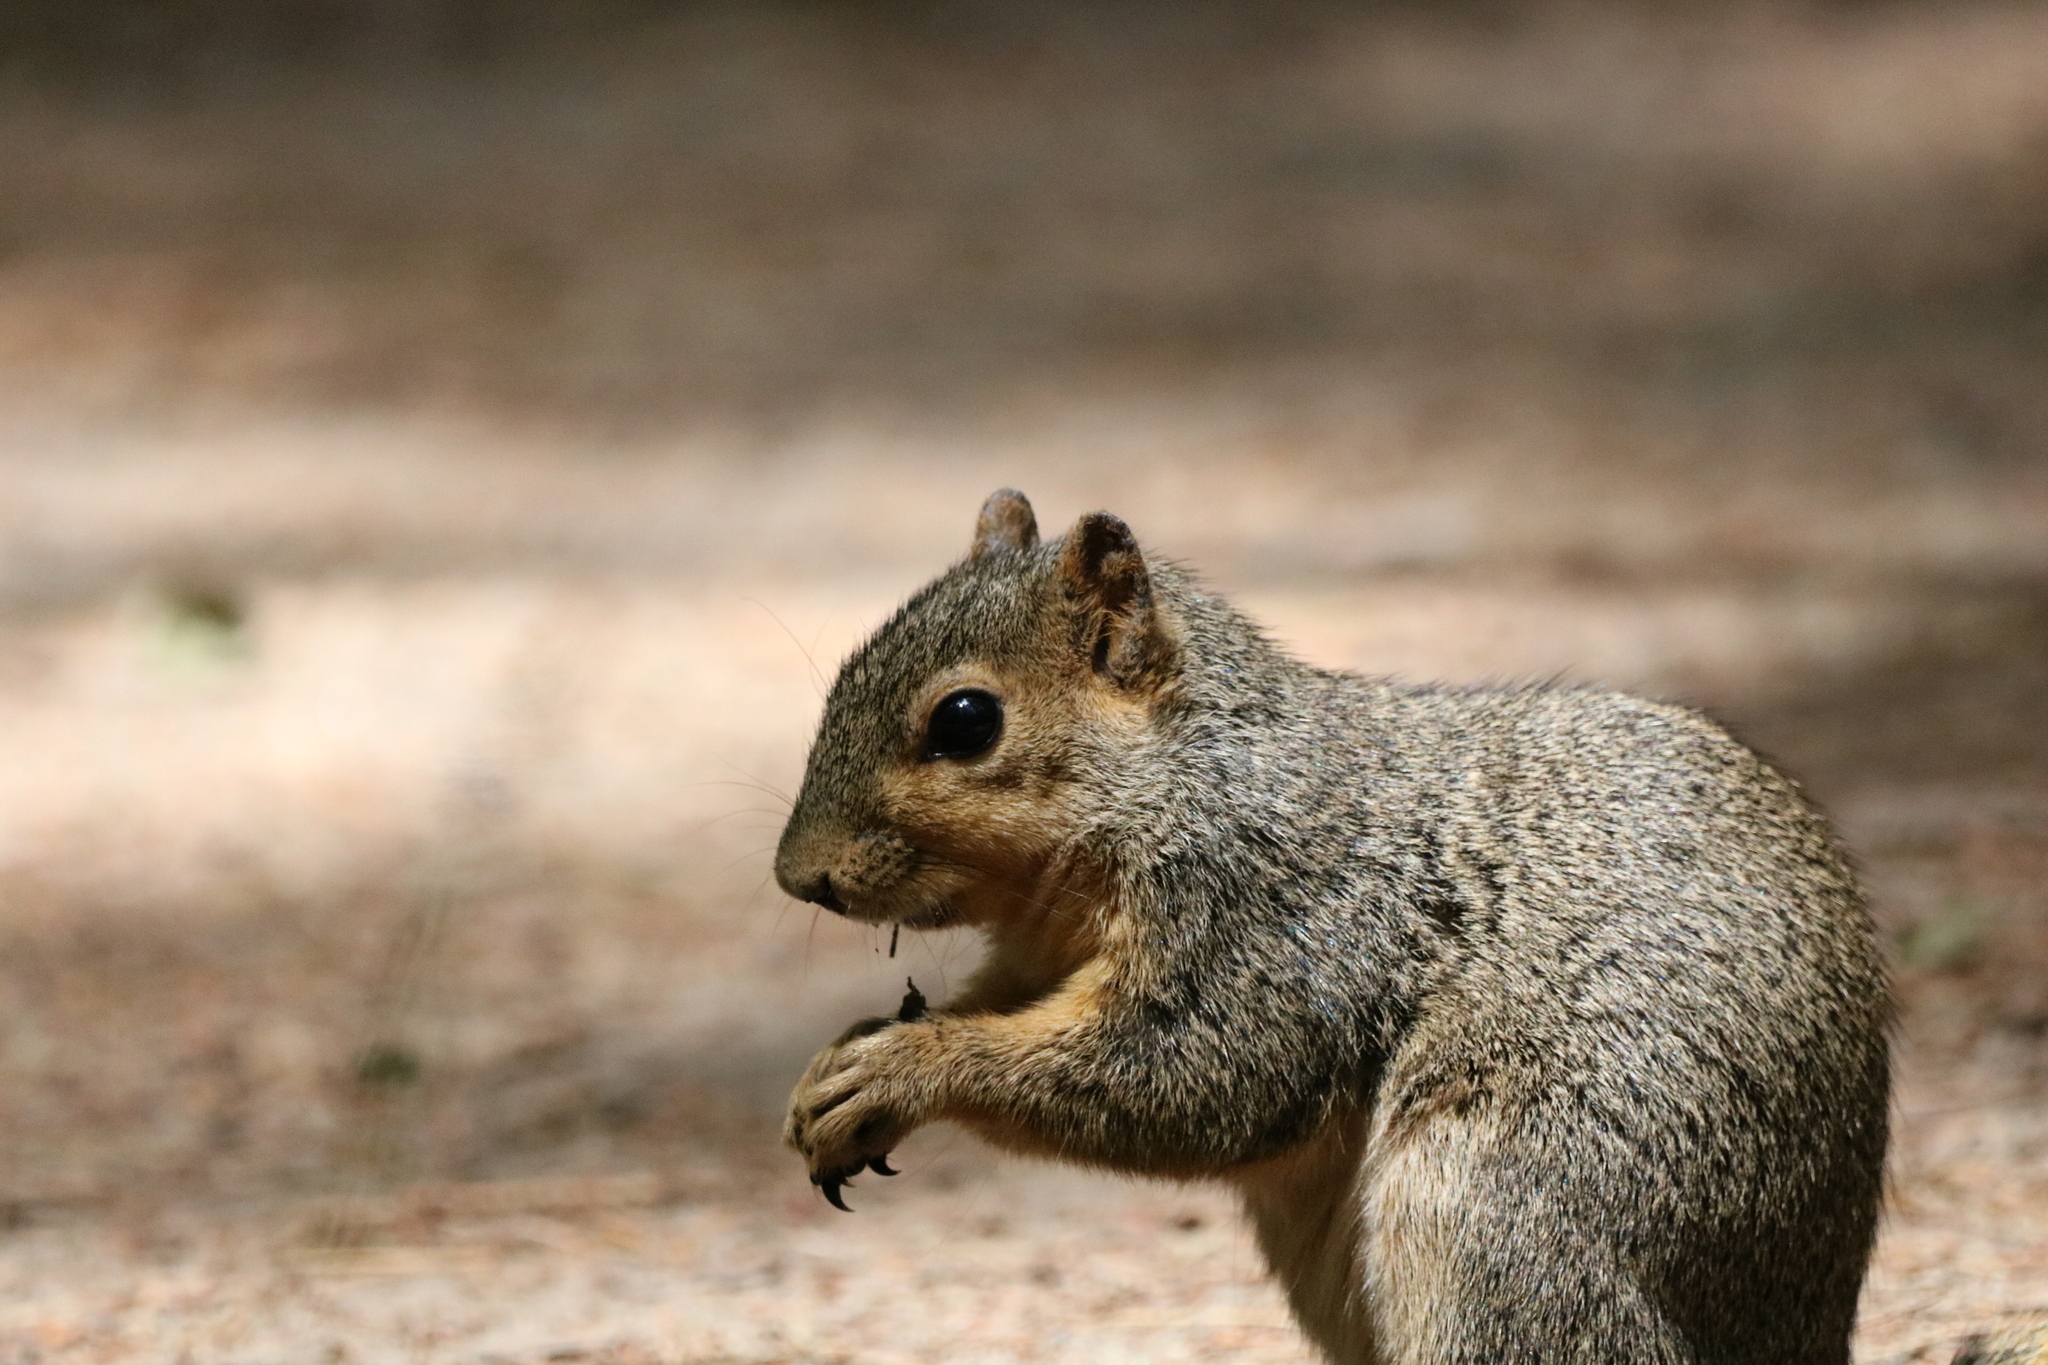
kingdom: Animalia
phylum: Chordata
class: Mammalia
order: Rodentia
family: Sciuridae
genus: Sciurus
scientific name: Sciurus niger
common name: Fox squirrel
